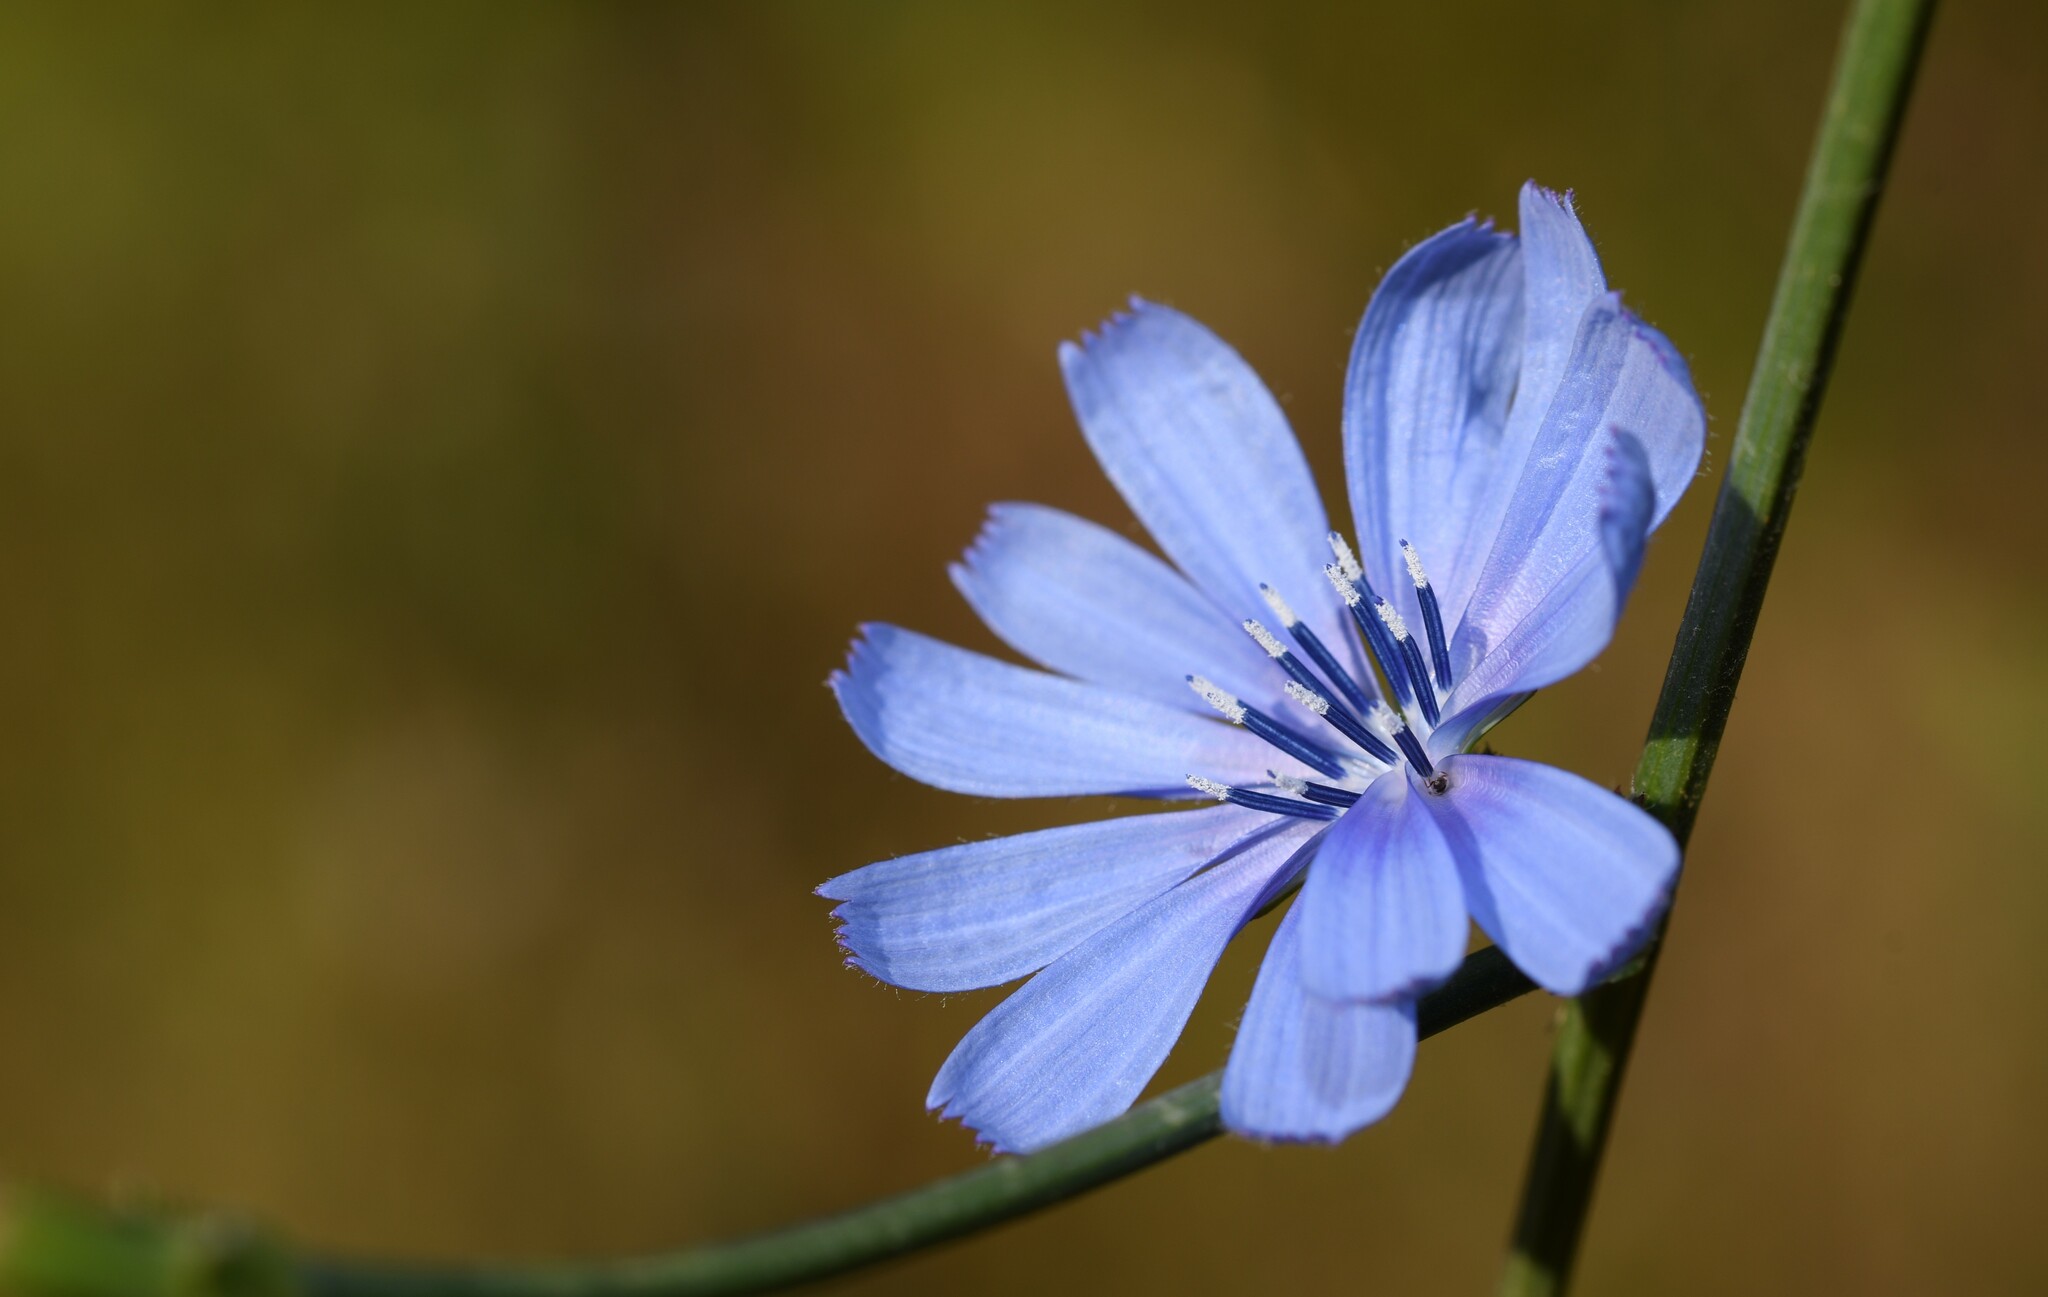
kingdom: Plantae
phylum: Tracheophyta
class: Magnoliopsida
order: Asterales
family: Asteraceae
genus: Cichorium
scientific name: Cichorium intybus
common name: Chicory
